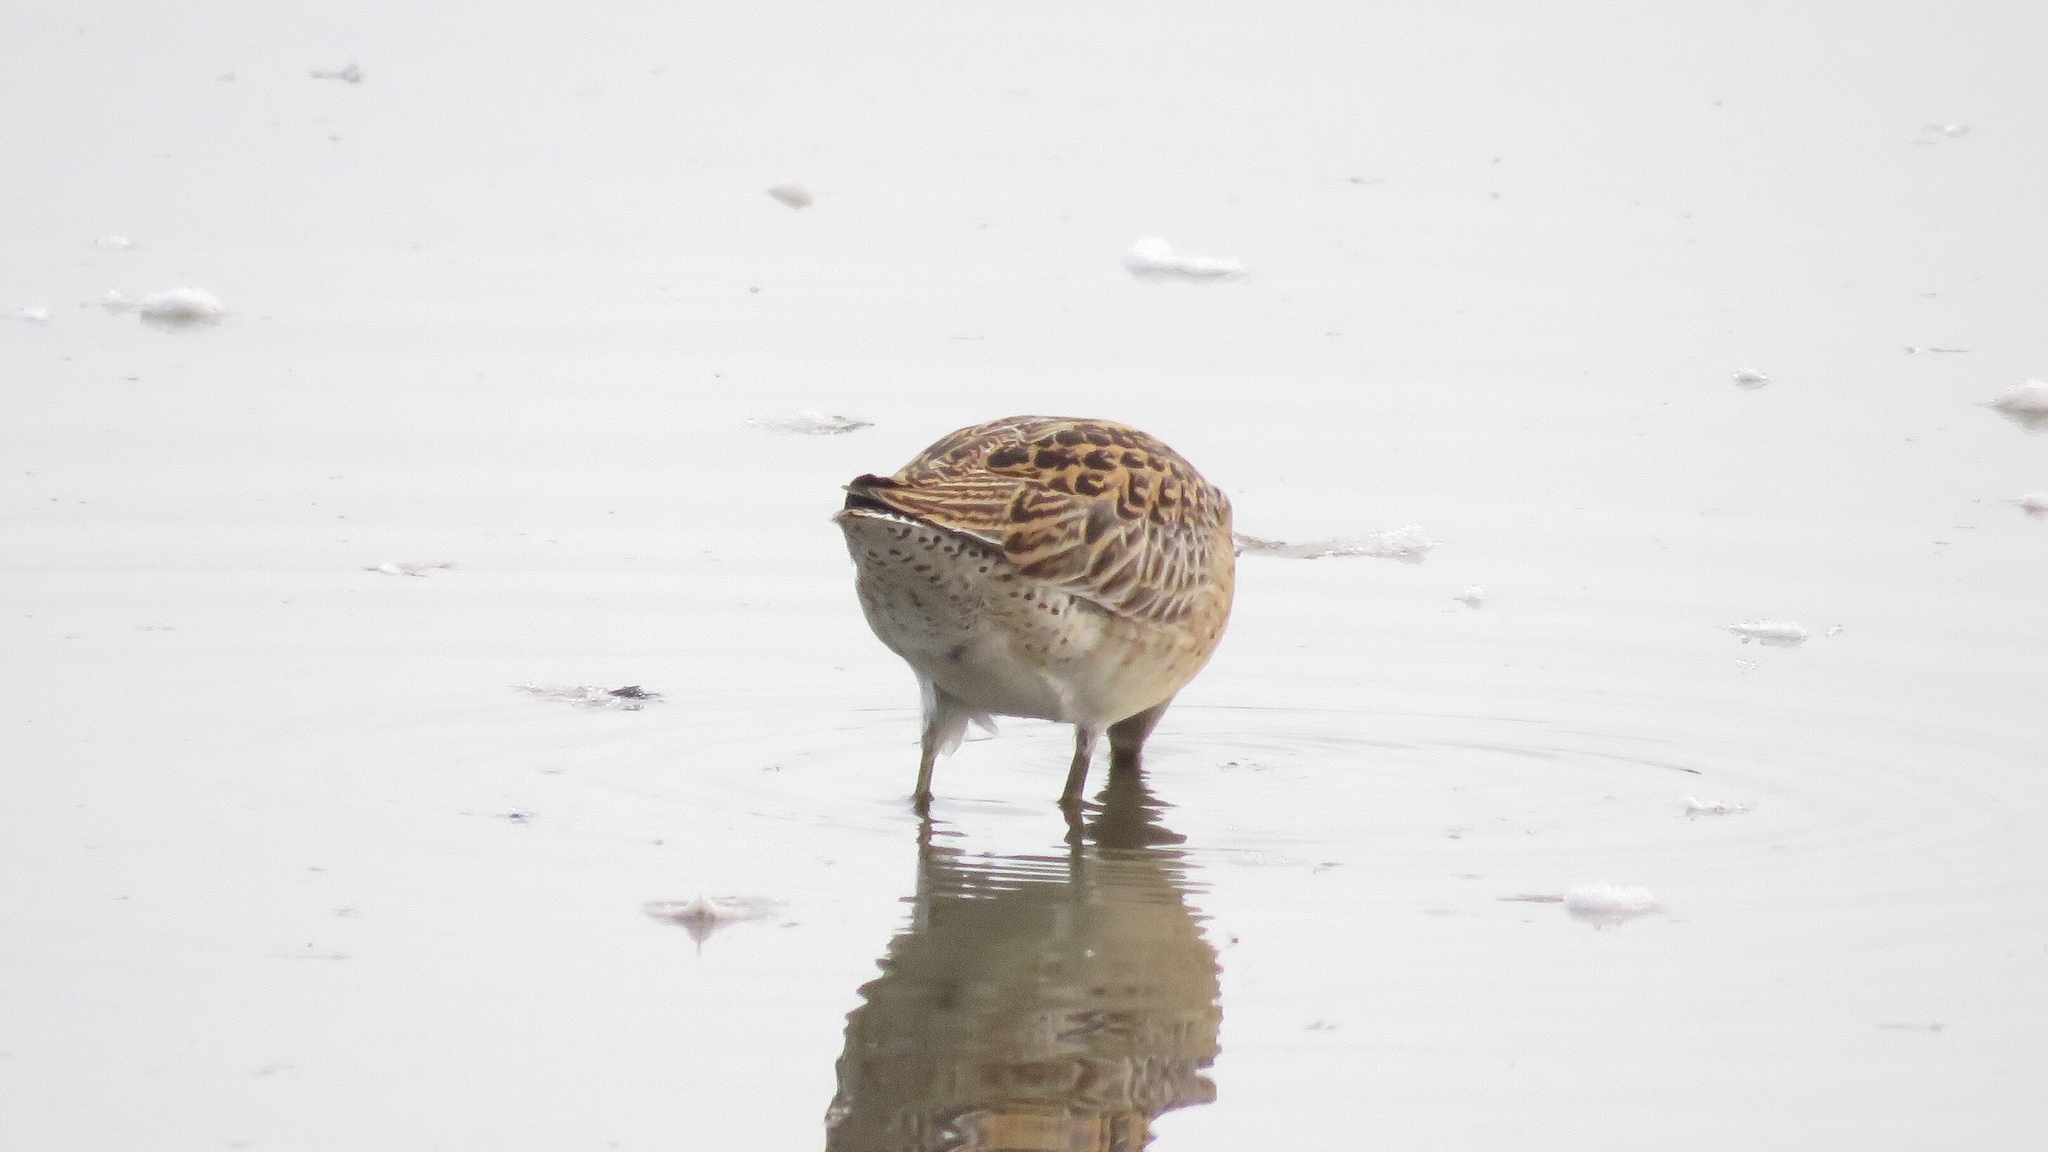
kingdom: Animalia
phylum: Chordata
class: Aves
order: Charadriiformes
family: Scolopacidae
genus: Limnodromus
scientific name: Limnodromus griseus
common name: Short-billed dowitcher
